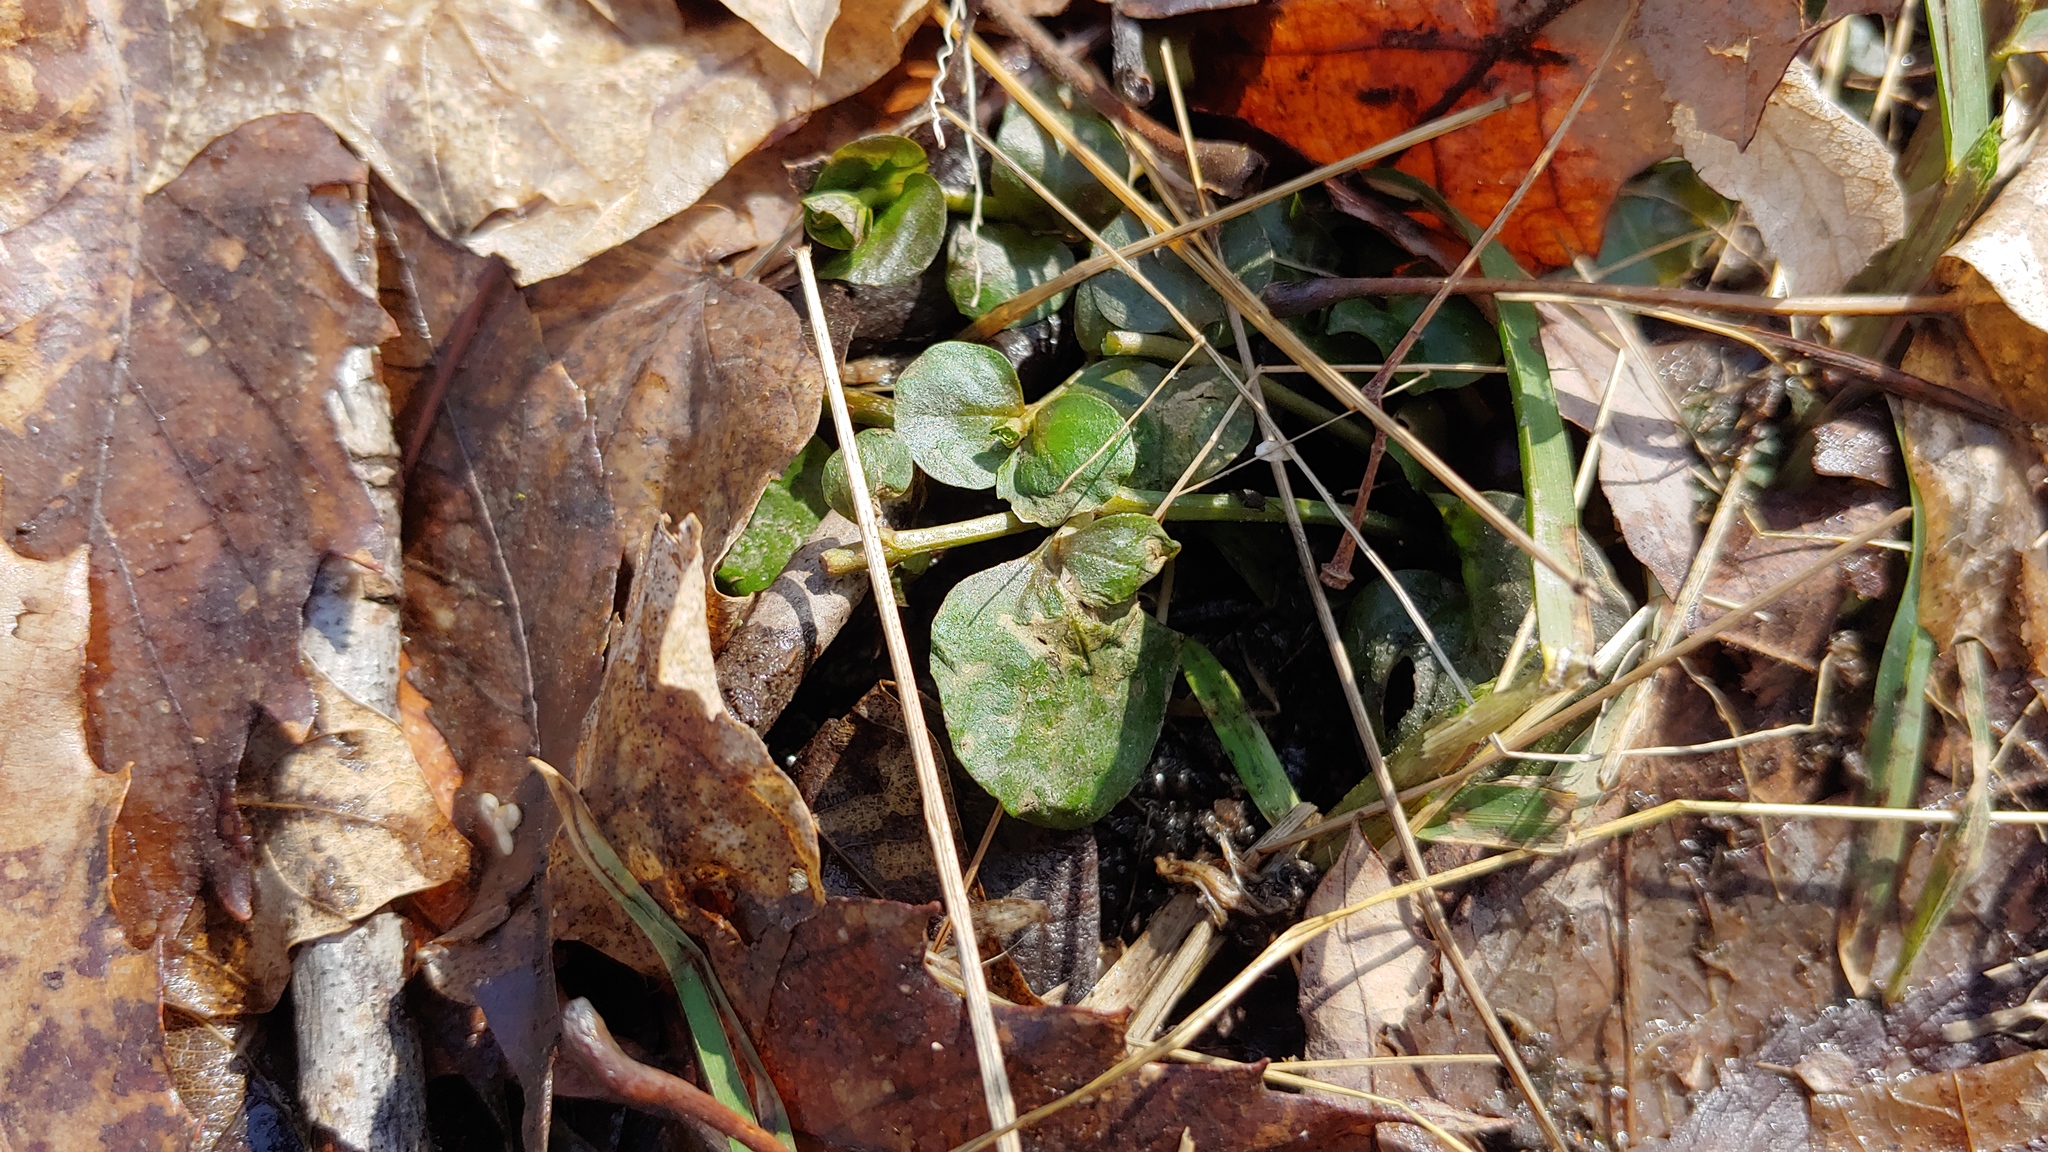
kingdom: Plantae
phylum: Tracheophyta
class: Magnoliopsida
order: Ericales
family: Primulaceae
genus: Lysimachia
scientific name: Lysimachia nummularia
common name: Moneywort
